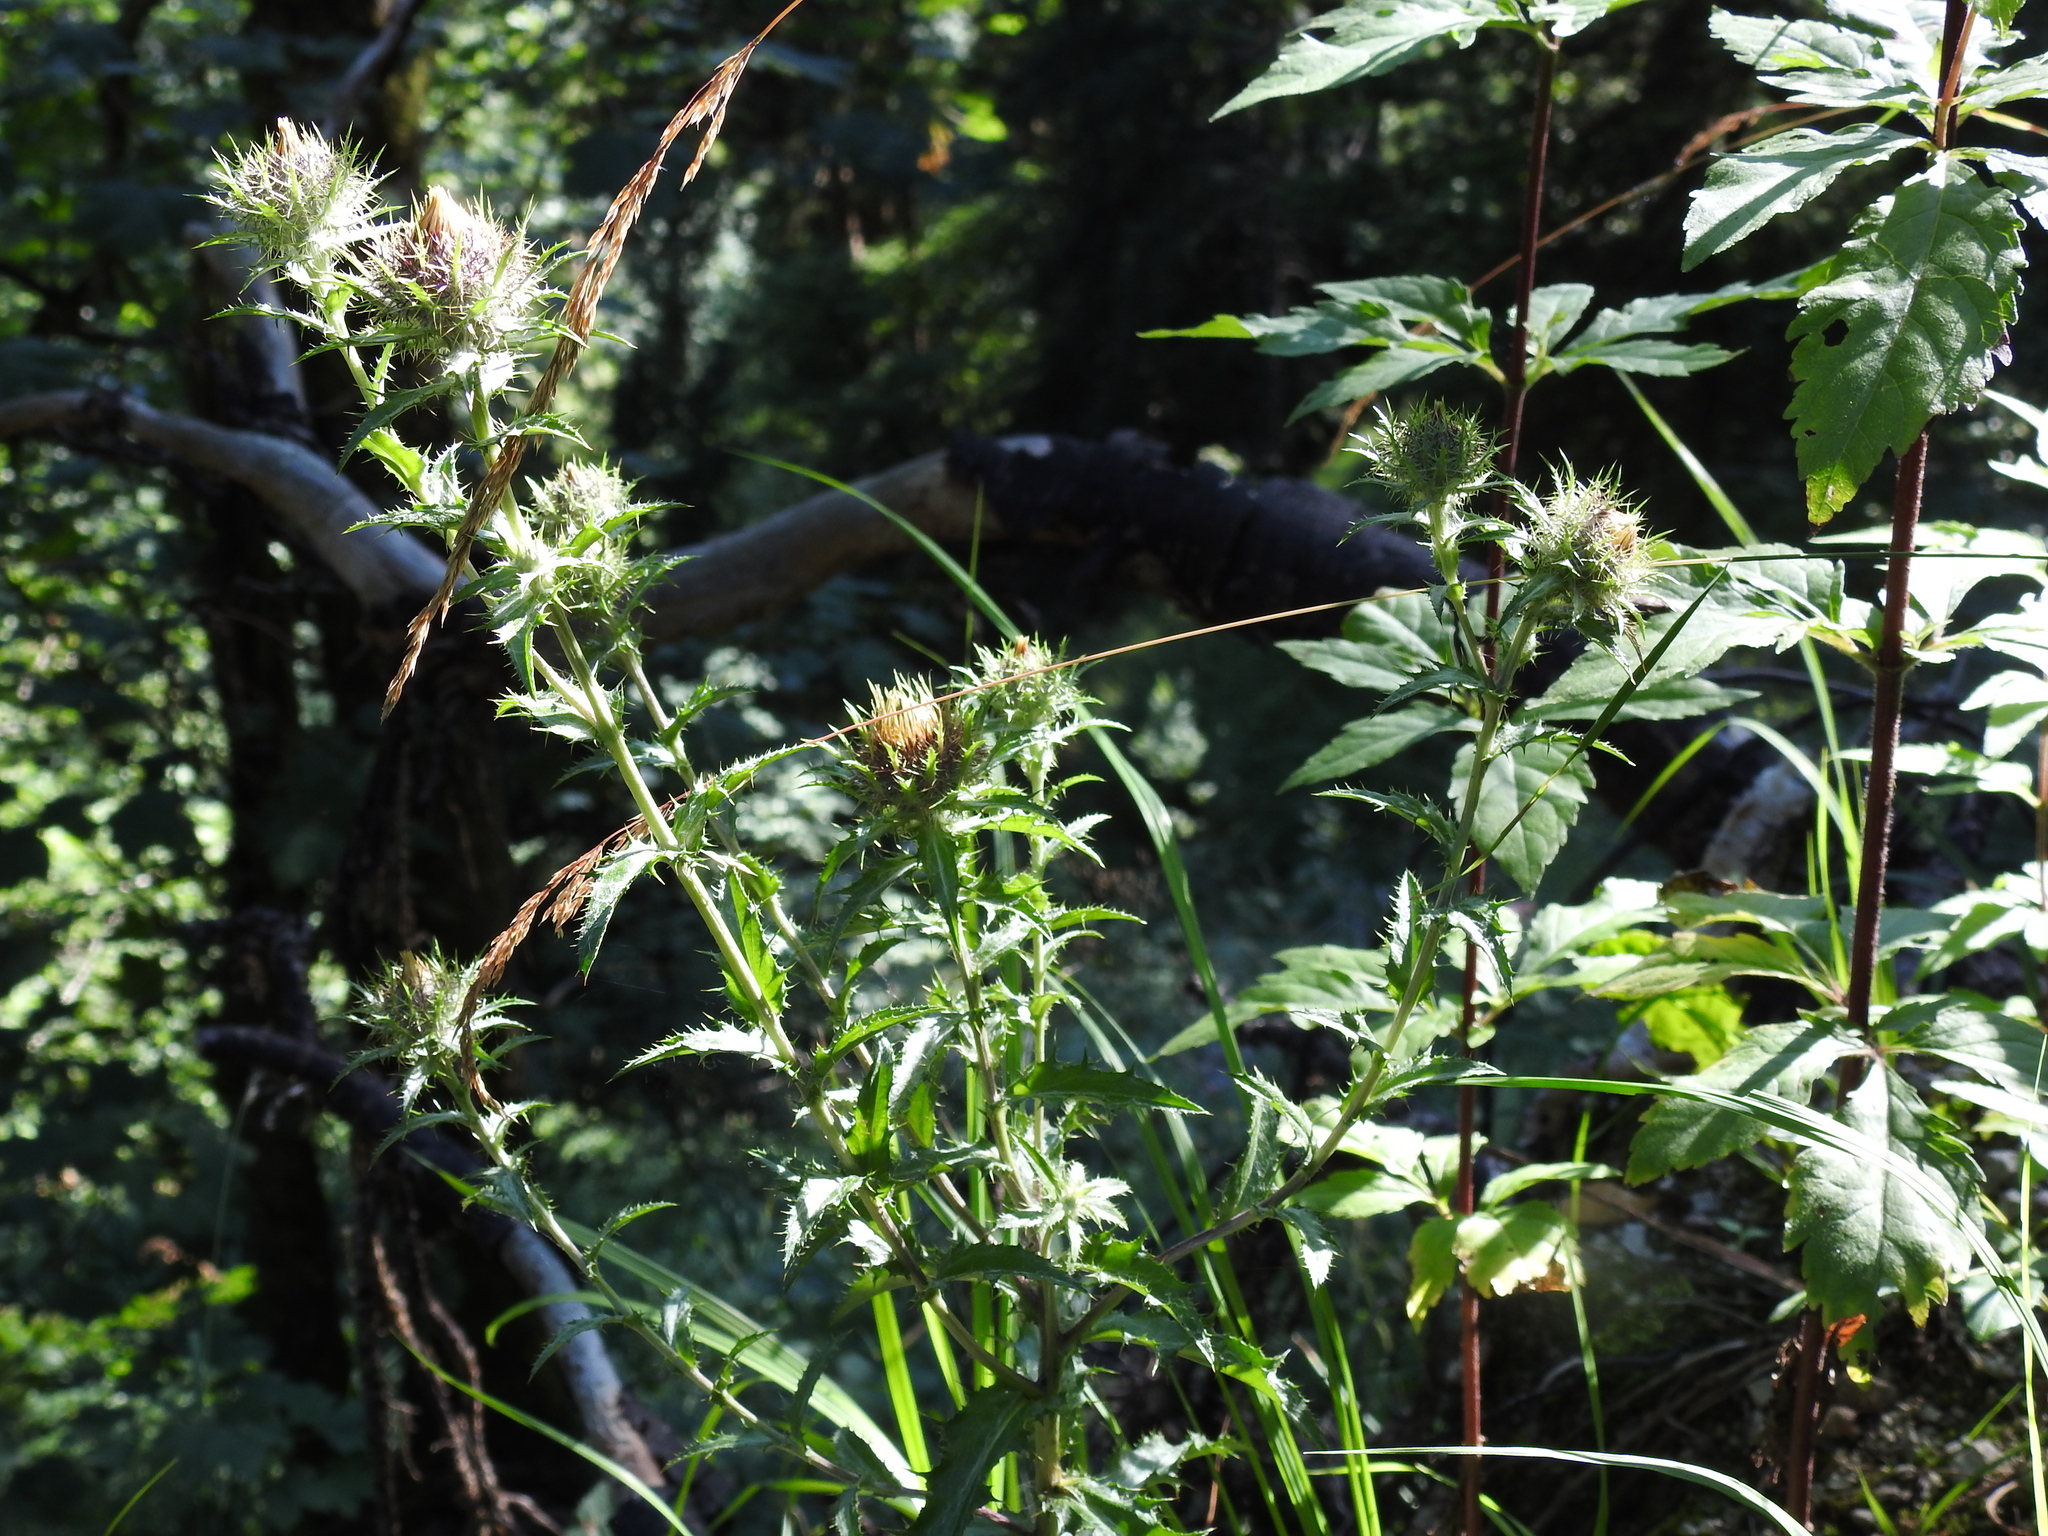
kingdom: Plantae
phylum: Tracheophyta
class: Magnoliopsida
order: Asterales
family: Asteraceae
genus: Carlina
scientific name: Carlina vulgaris
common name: Carline thistle
